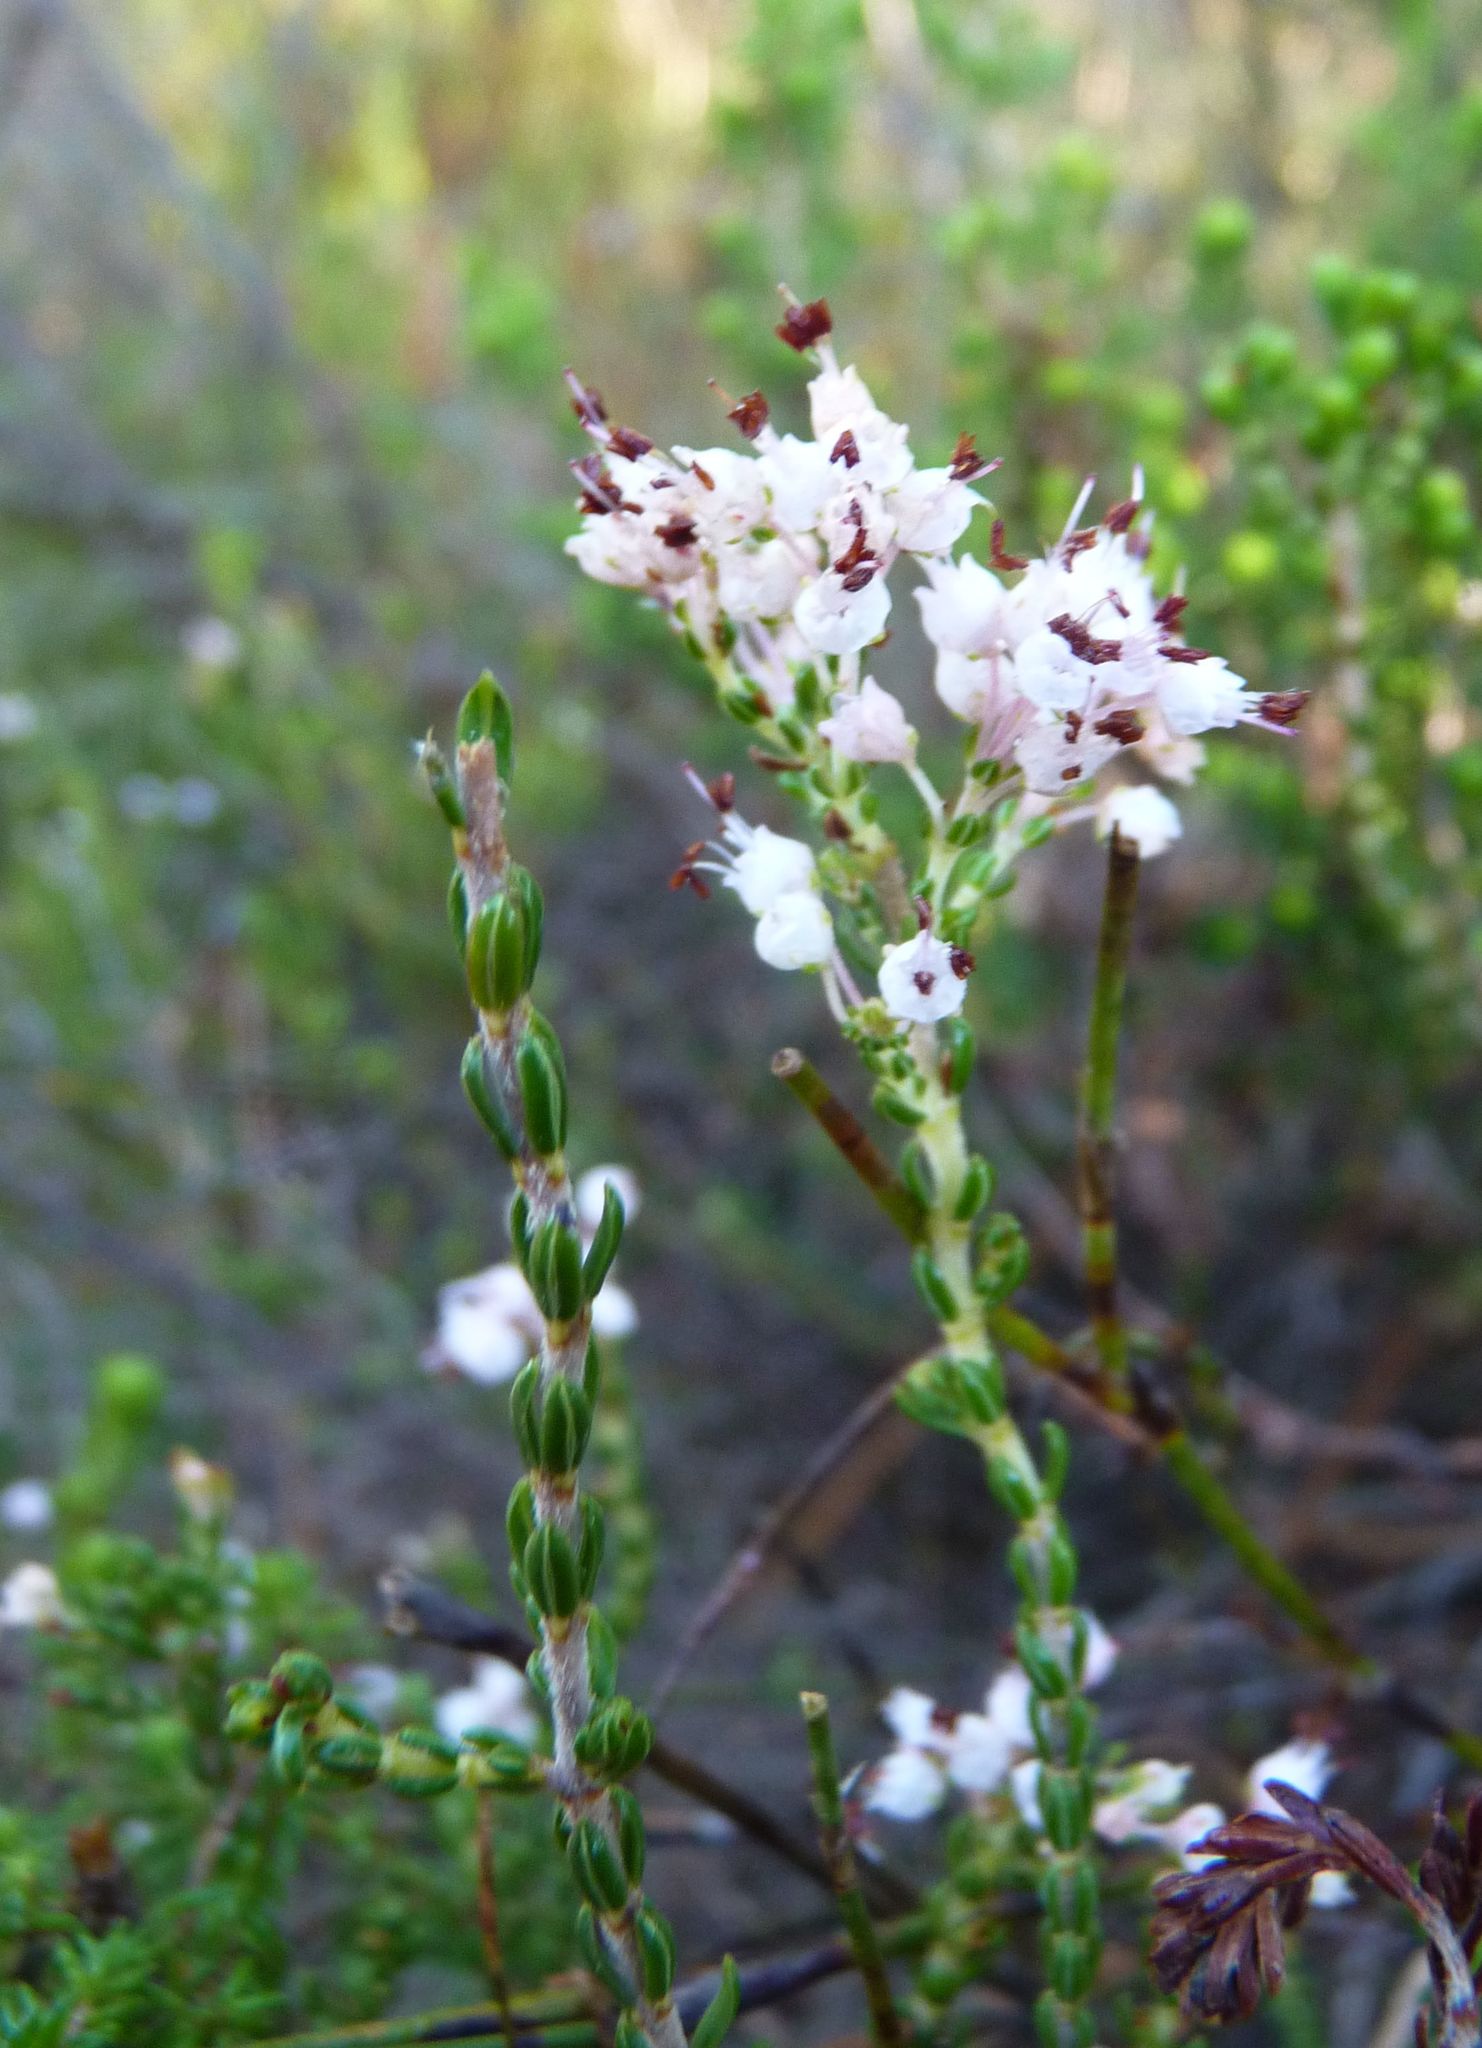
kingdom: Plantae
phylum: Tracheophyta
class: Magnoliopsida
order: Ericales
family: Ericaceae
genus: Erica
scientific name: Erica demissa
